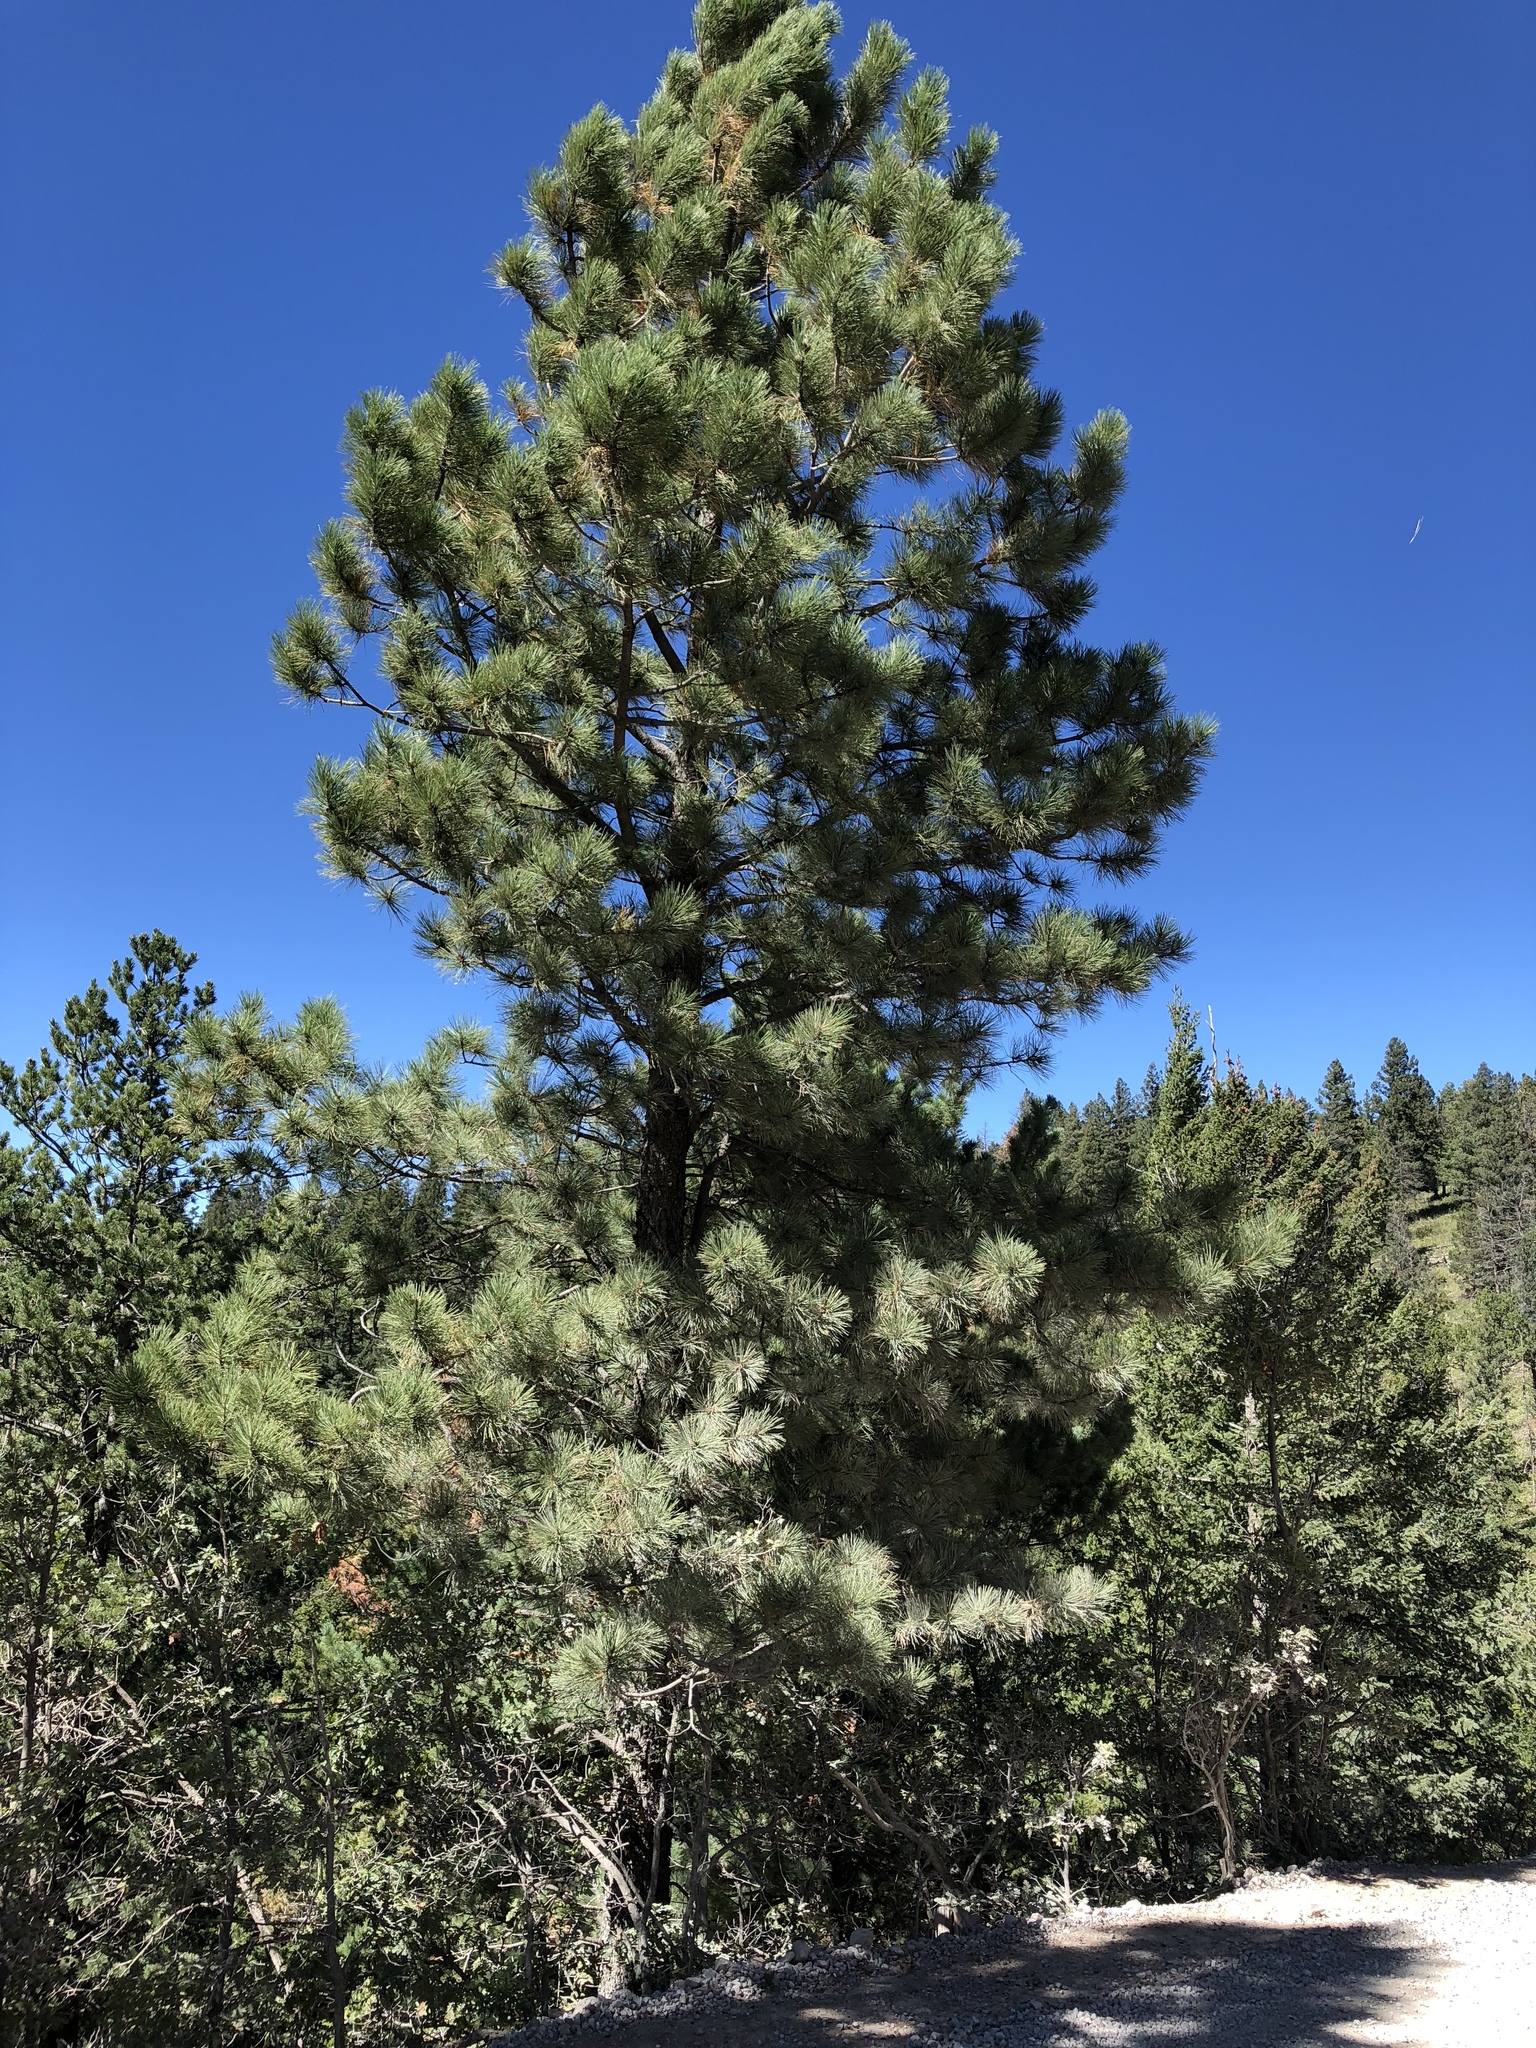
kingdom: Plantae
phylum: Tracheophyta
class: Pinopsida
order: Pinales
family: Pinaceae
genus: Pinus
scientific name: Pinus ponderosa
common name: Western yellow-pine
